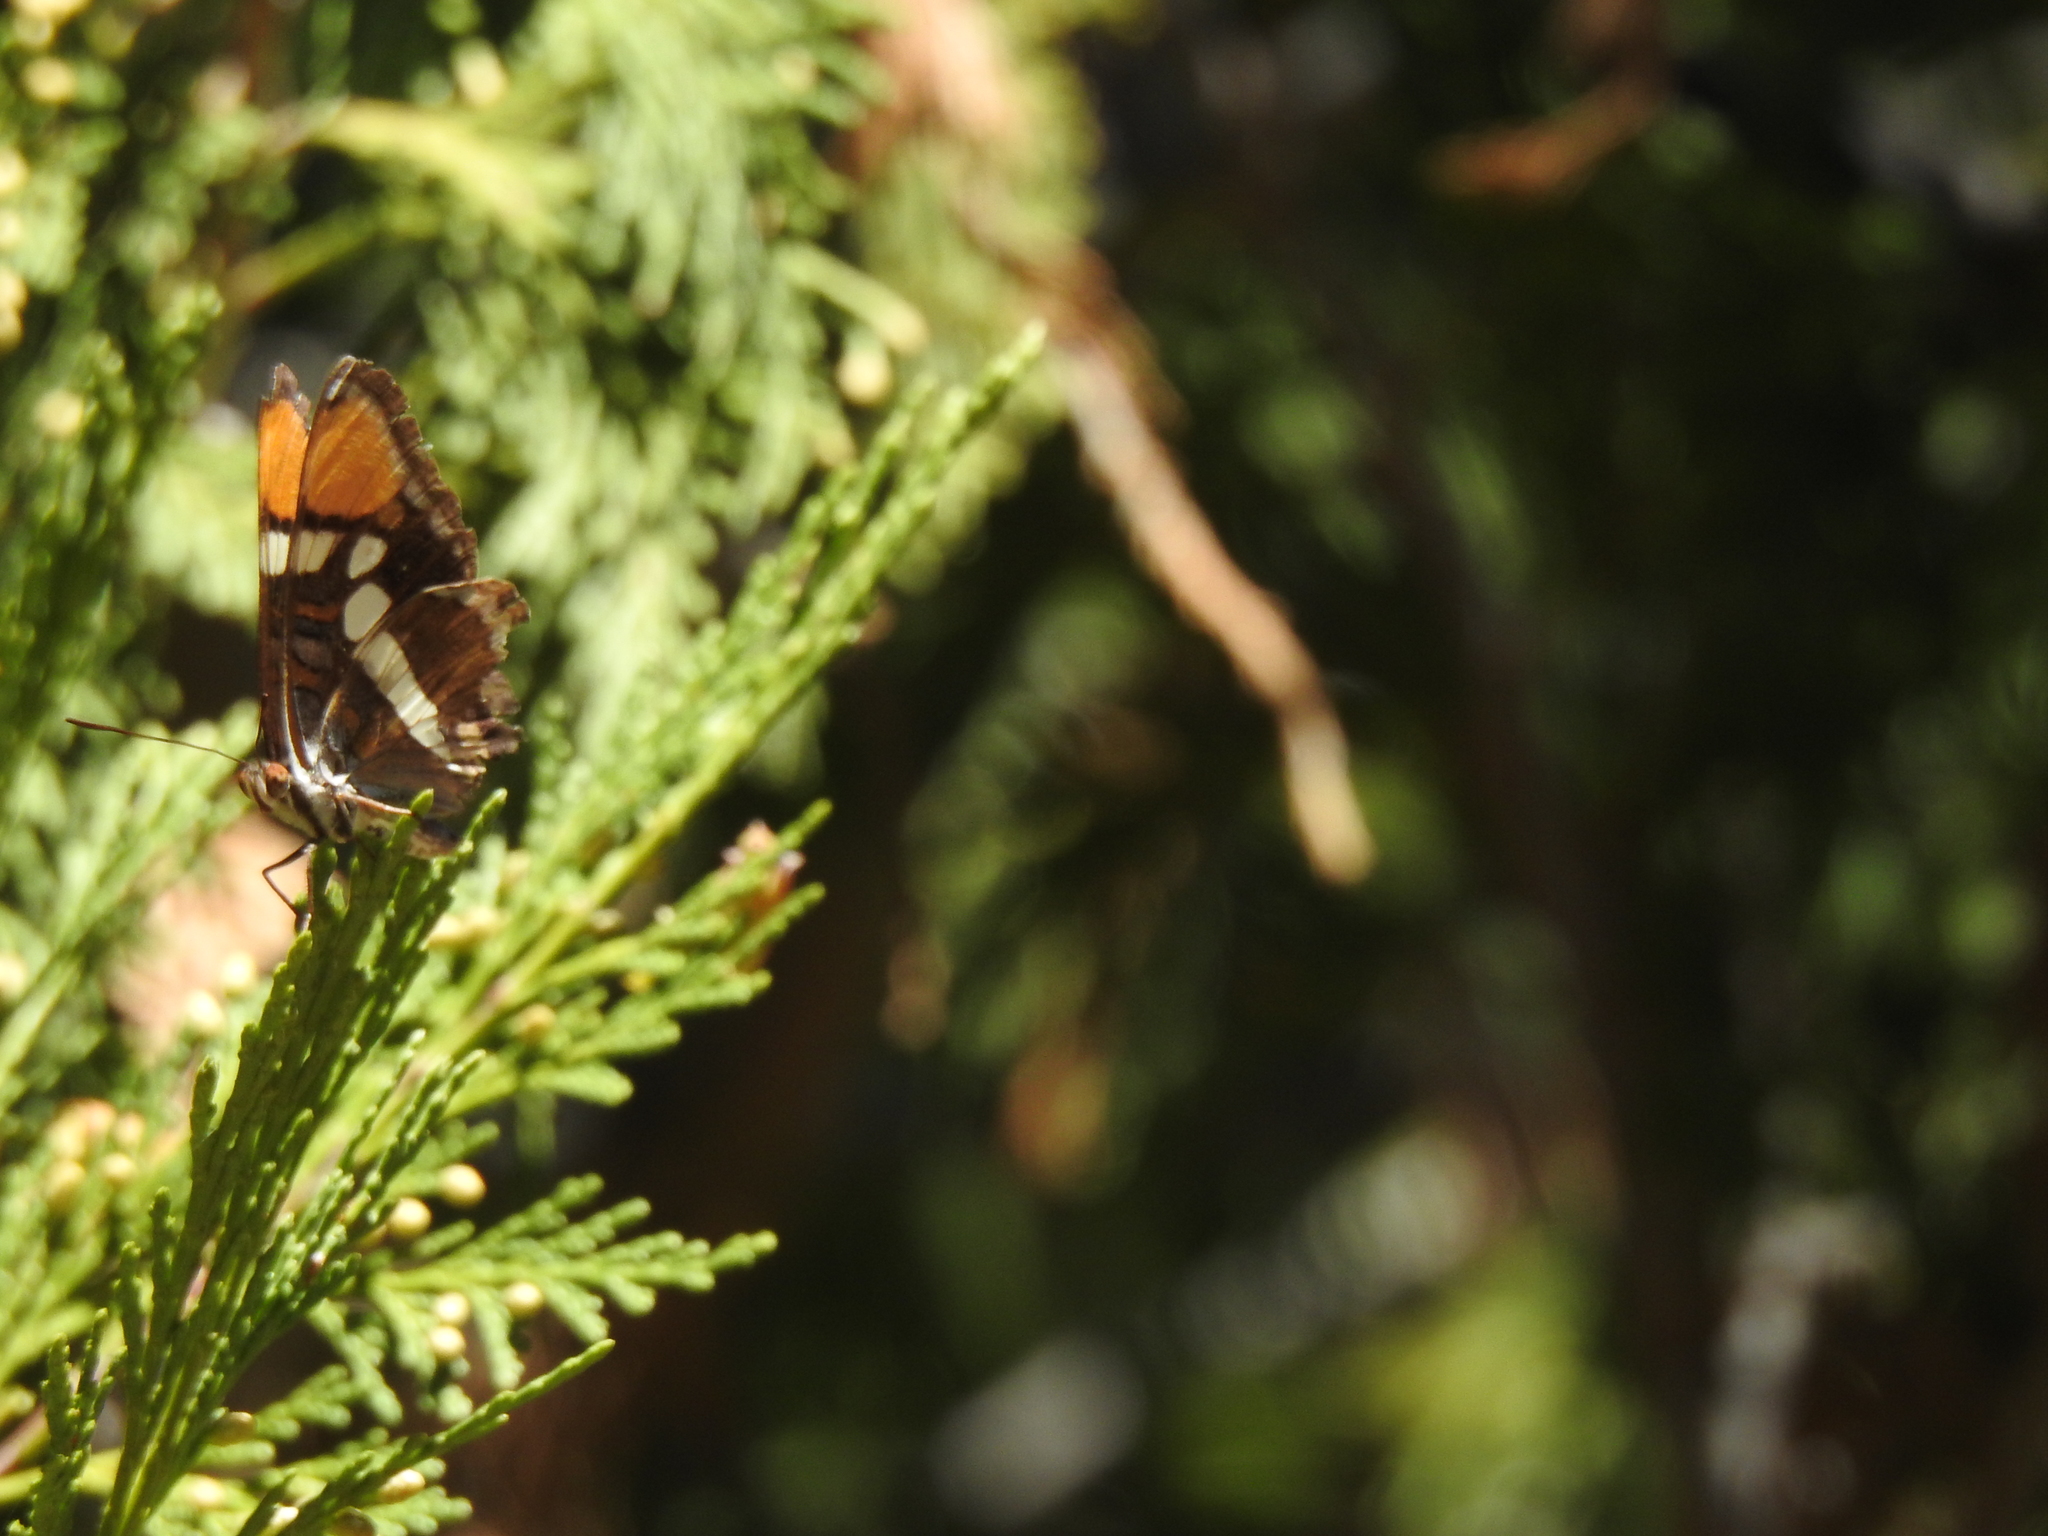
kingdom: Animalia
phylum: Arthropoda
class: Insecta
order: Lepidoptera
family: Nymphalidae
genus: Limenitis
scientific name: Limenitis bredowii
